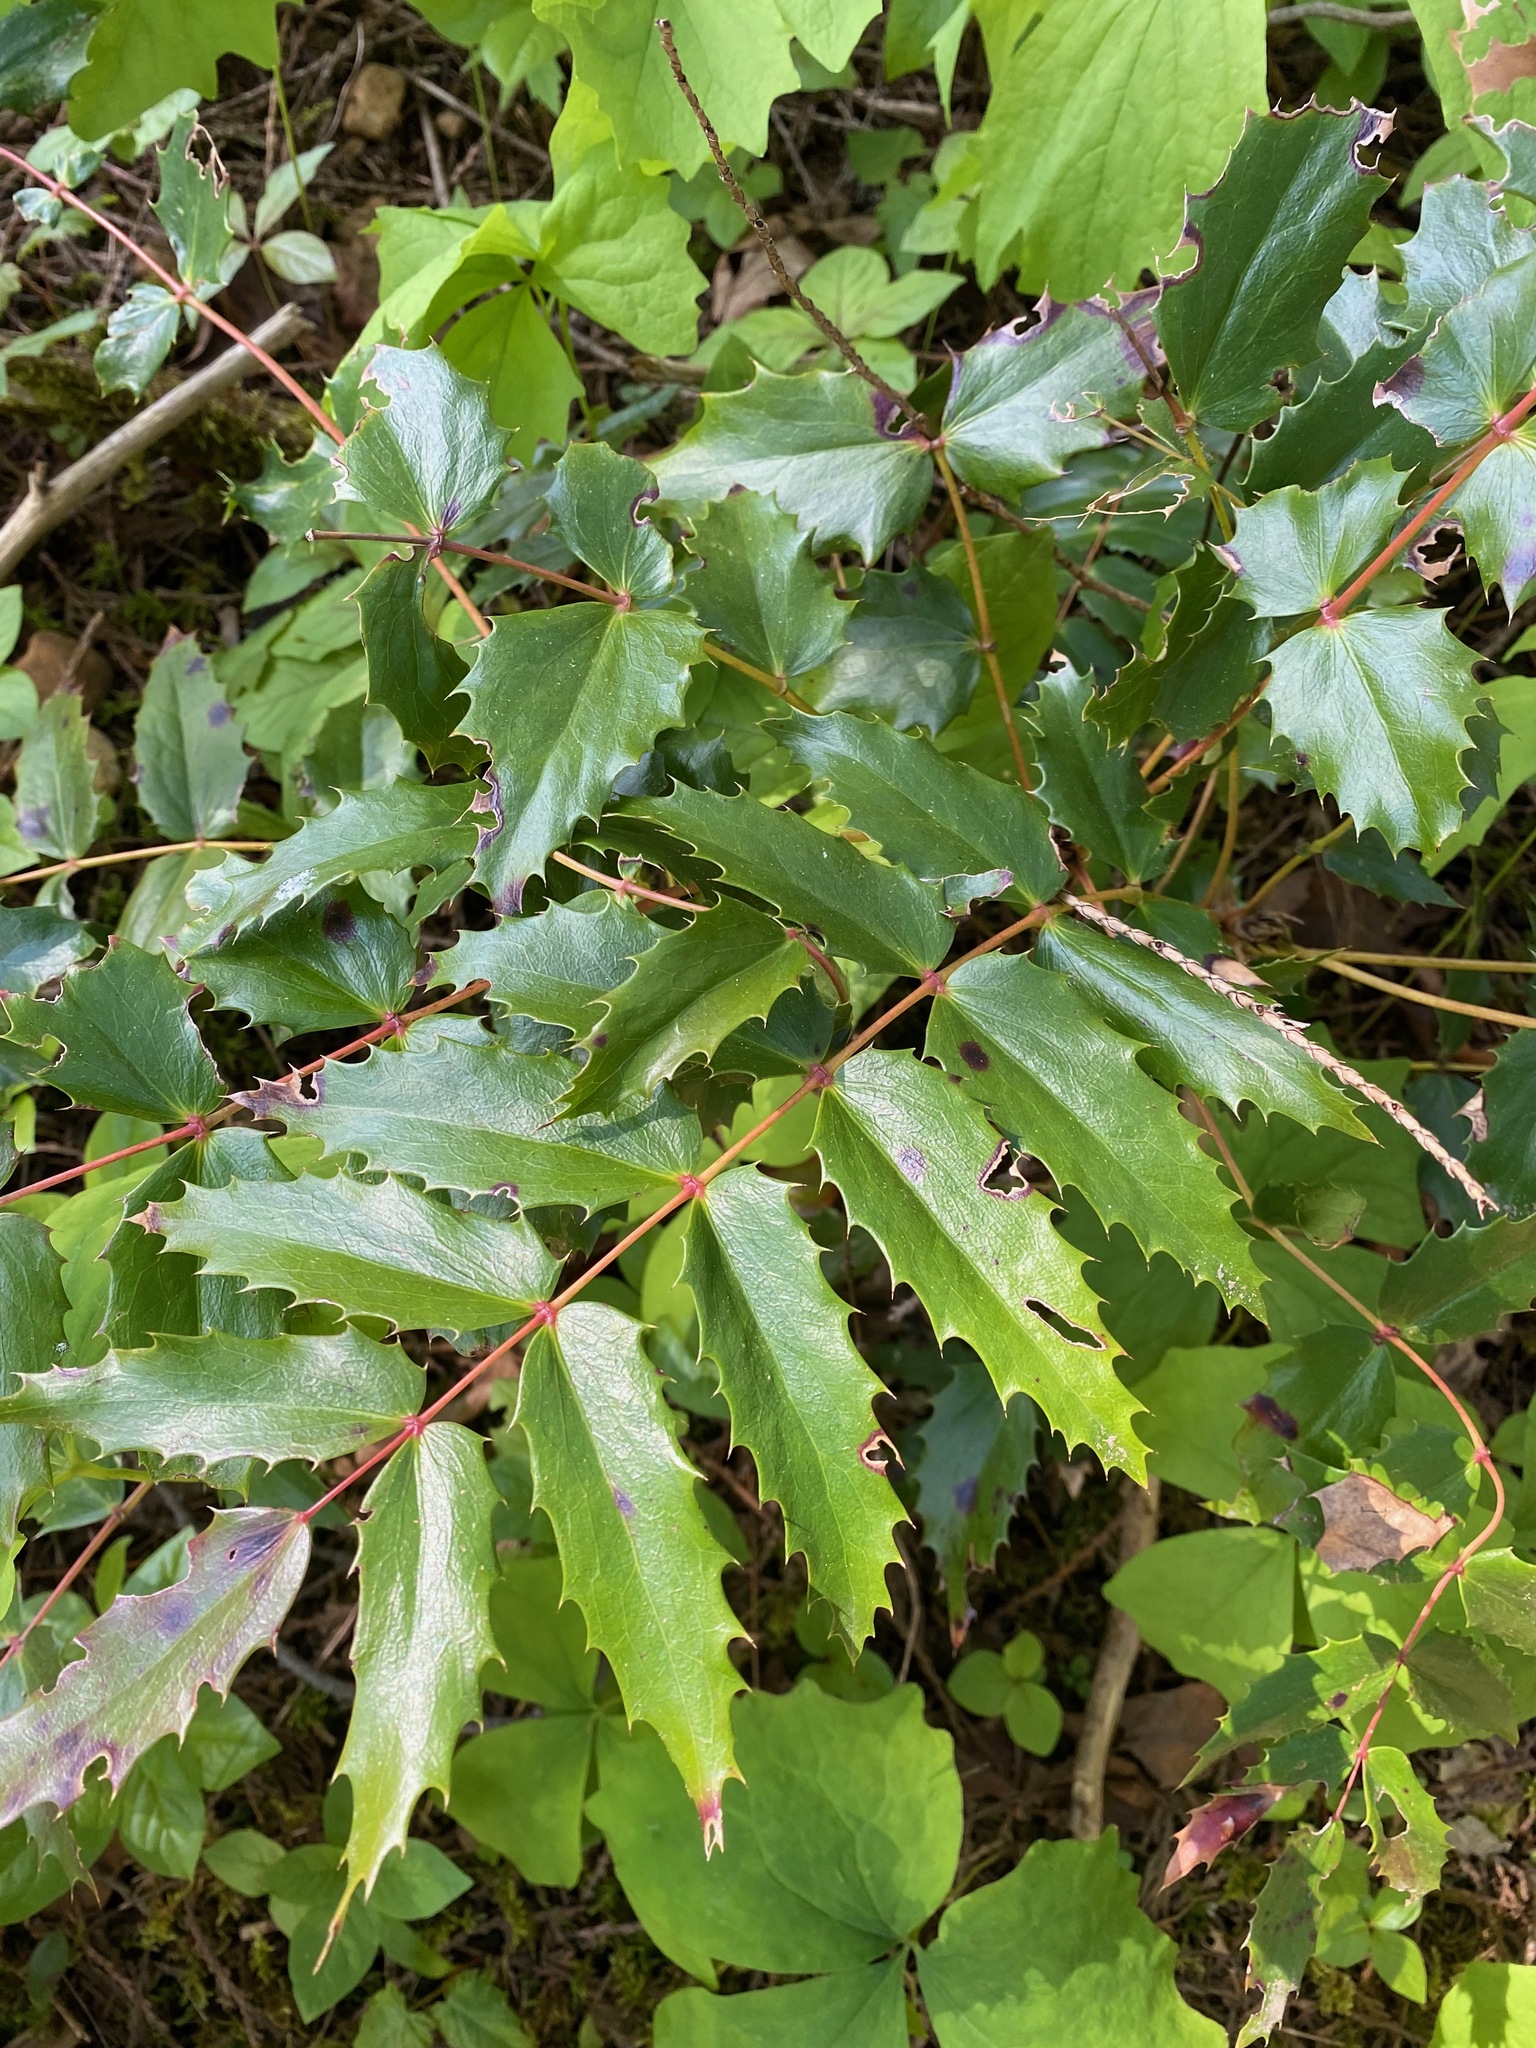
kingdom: Plantae
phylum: Tracheophyta
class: Magnoliopsida
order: Ranunculales
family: Berberidaceae
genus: Mahonia
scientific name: Mahonia nervosa
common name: Cascade oregon-grape
